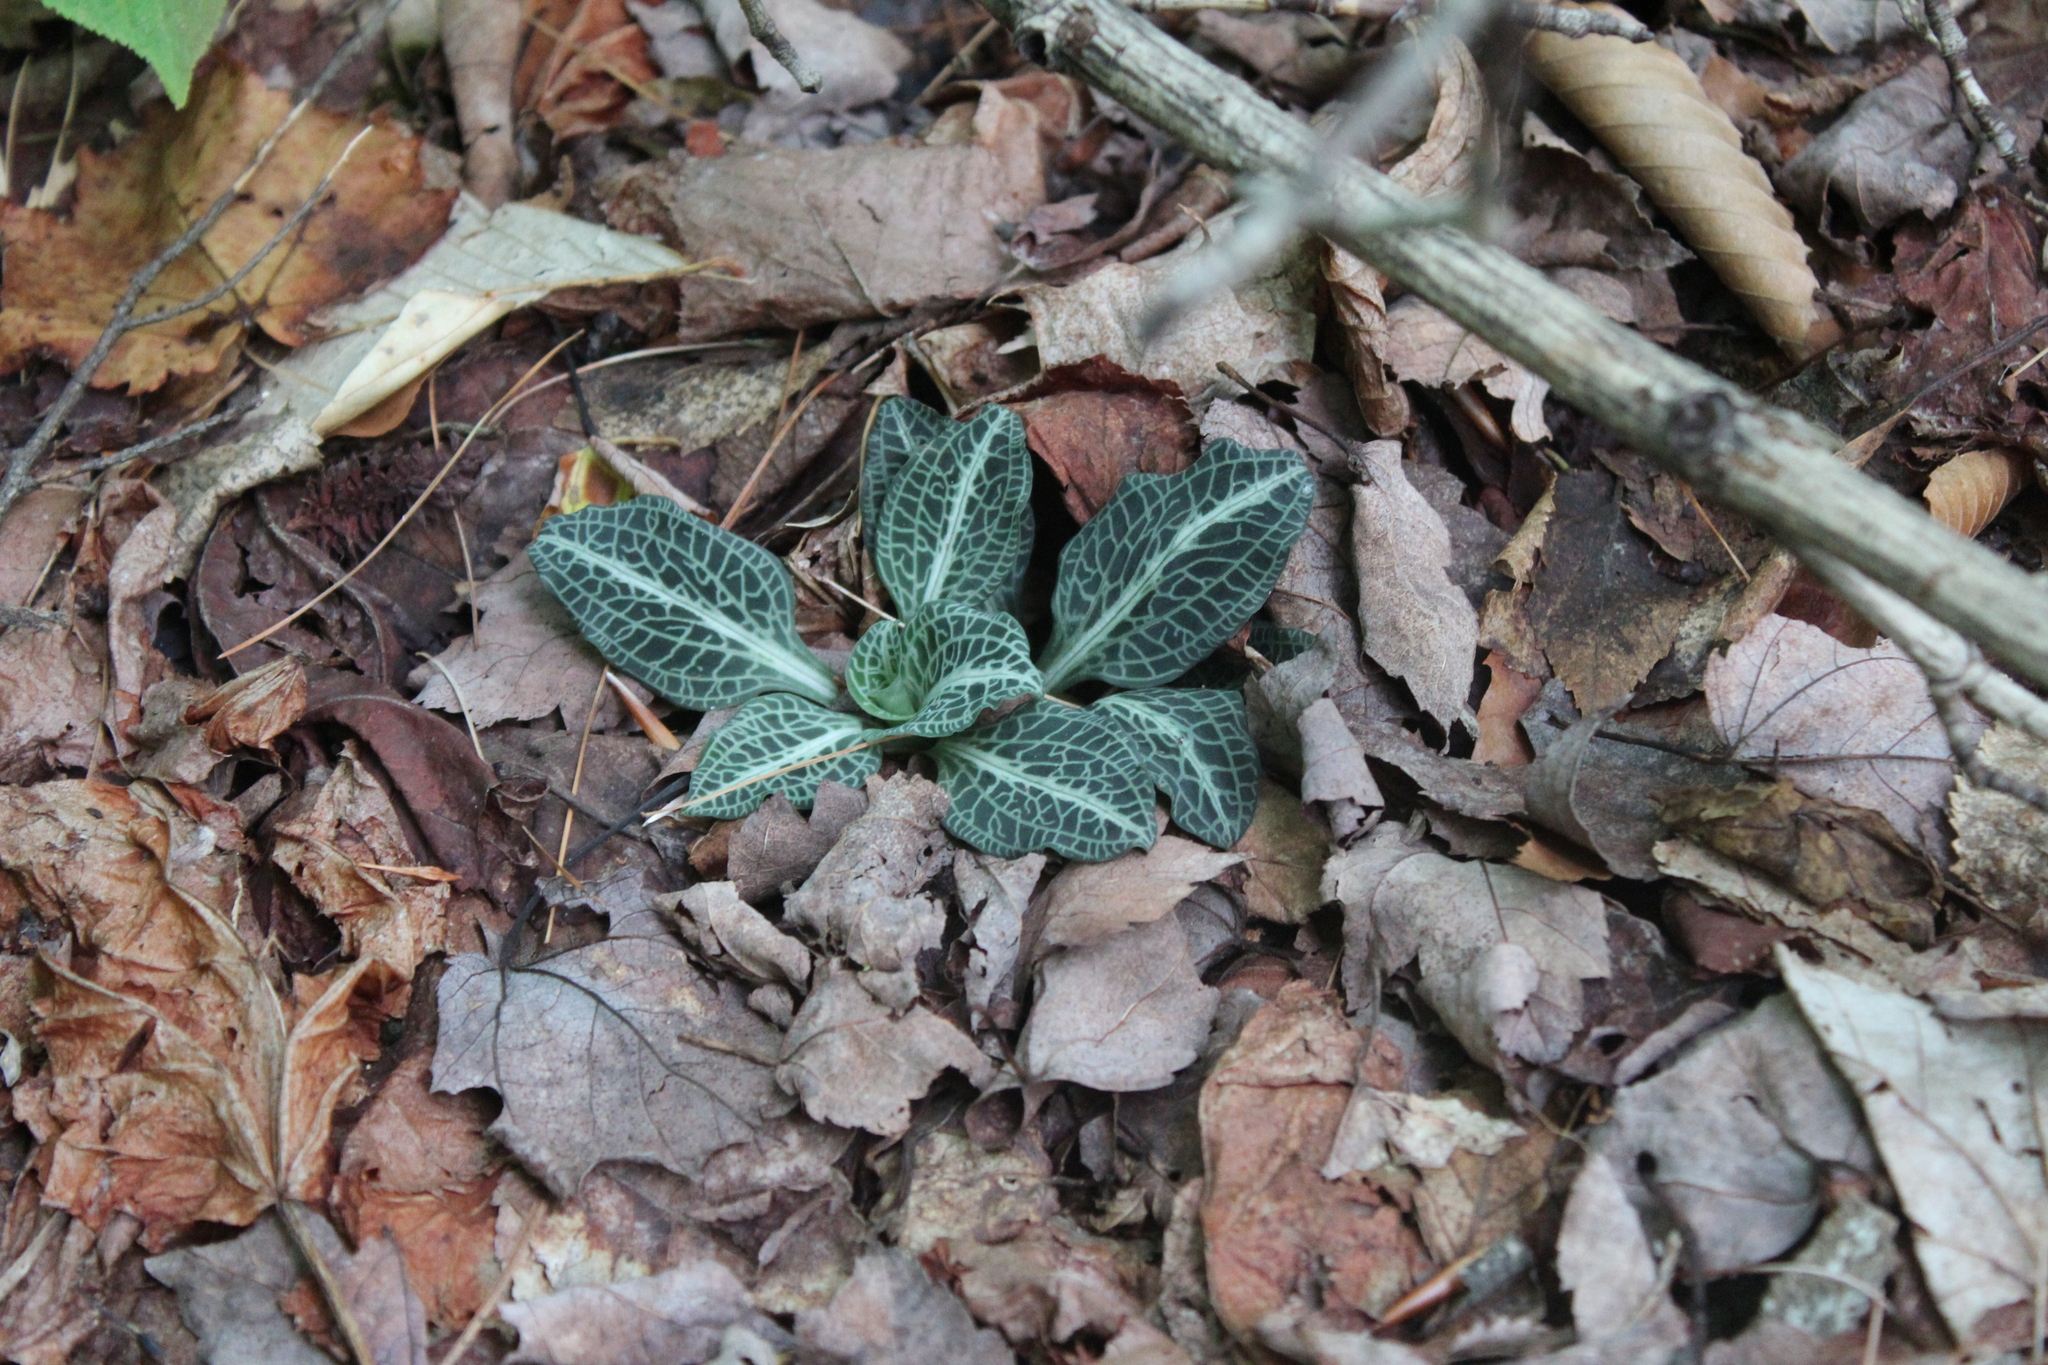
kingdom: Plantae
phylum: Tracheophyta
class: Liliopsida
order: Asparagales
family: Orchidaceae
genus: Goodyera
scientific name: Goodyera pubescens
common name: Downy rattlesnake-plantain
